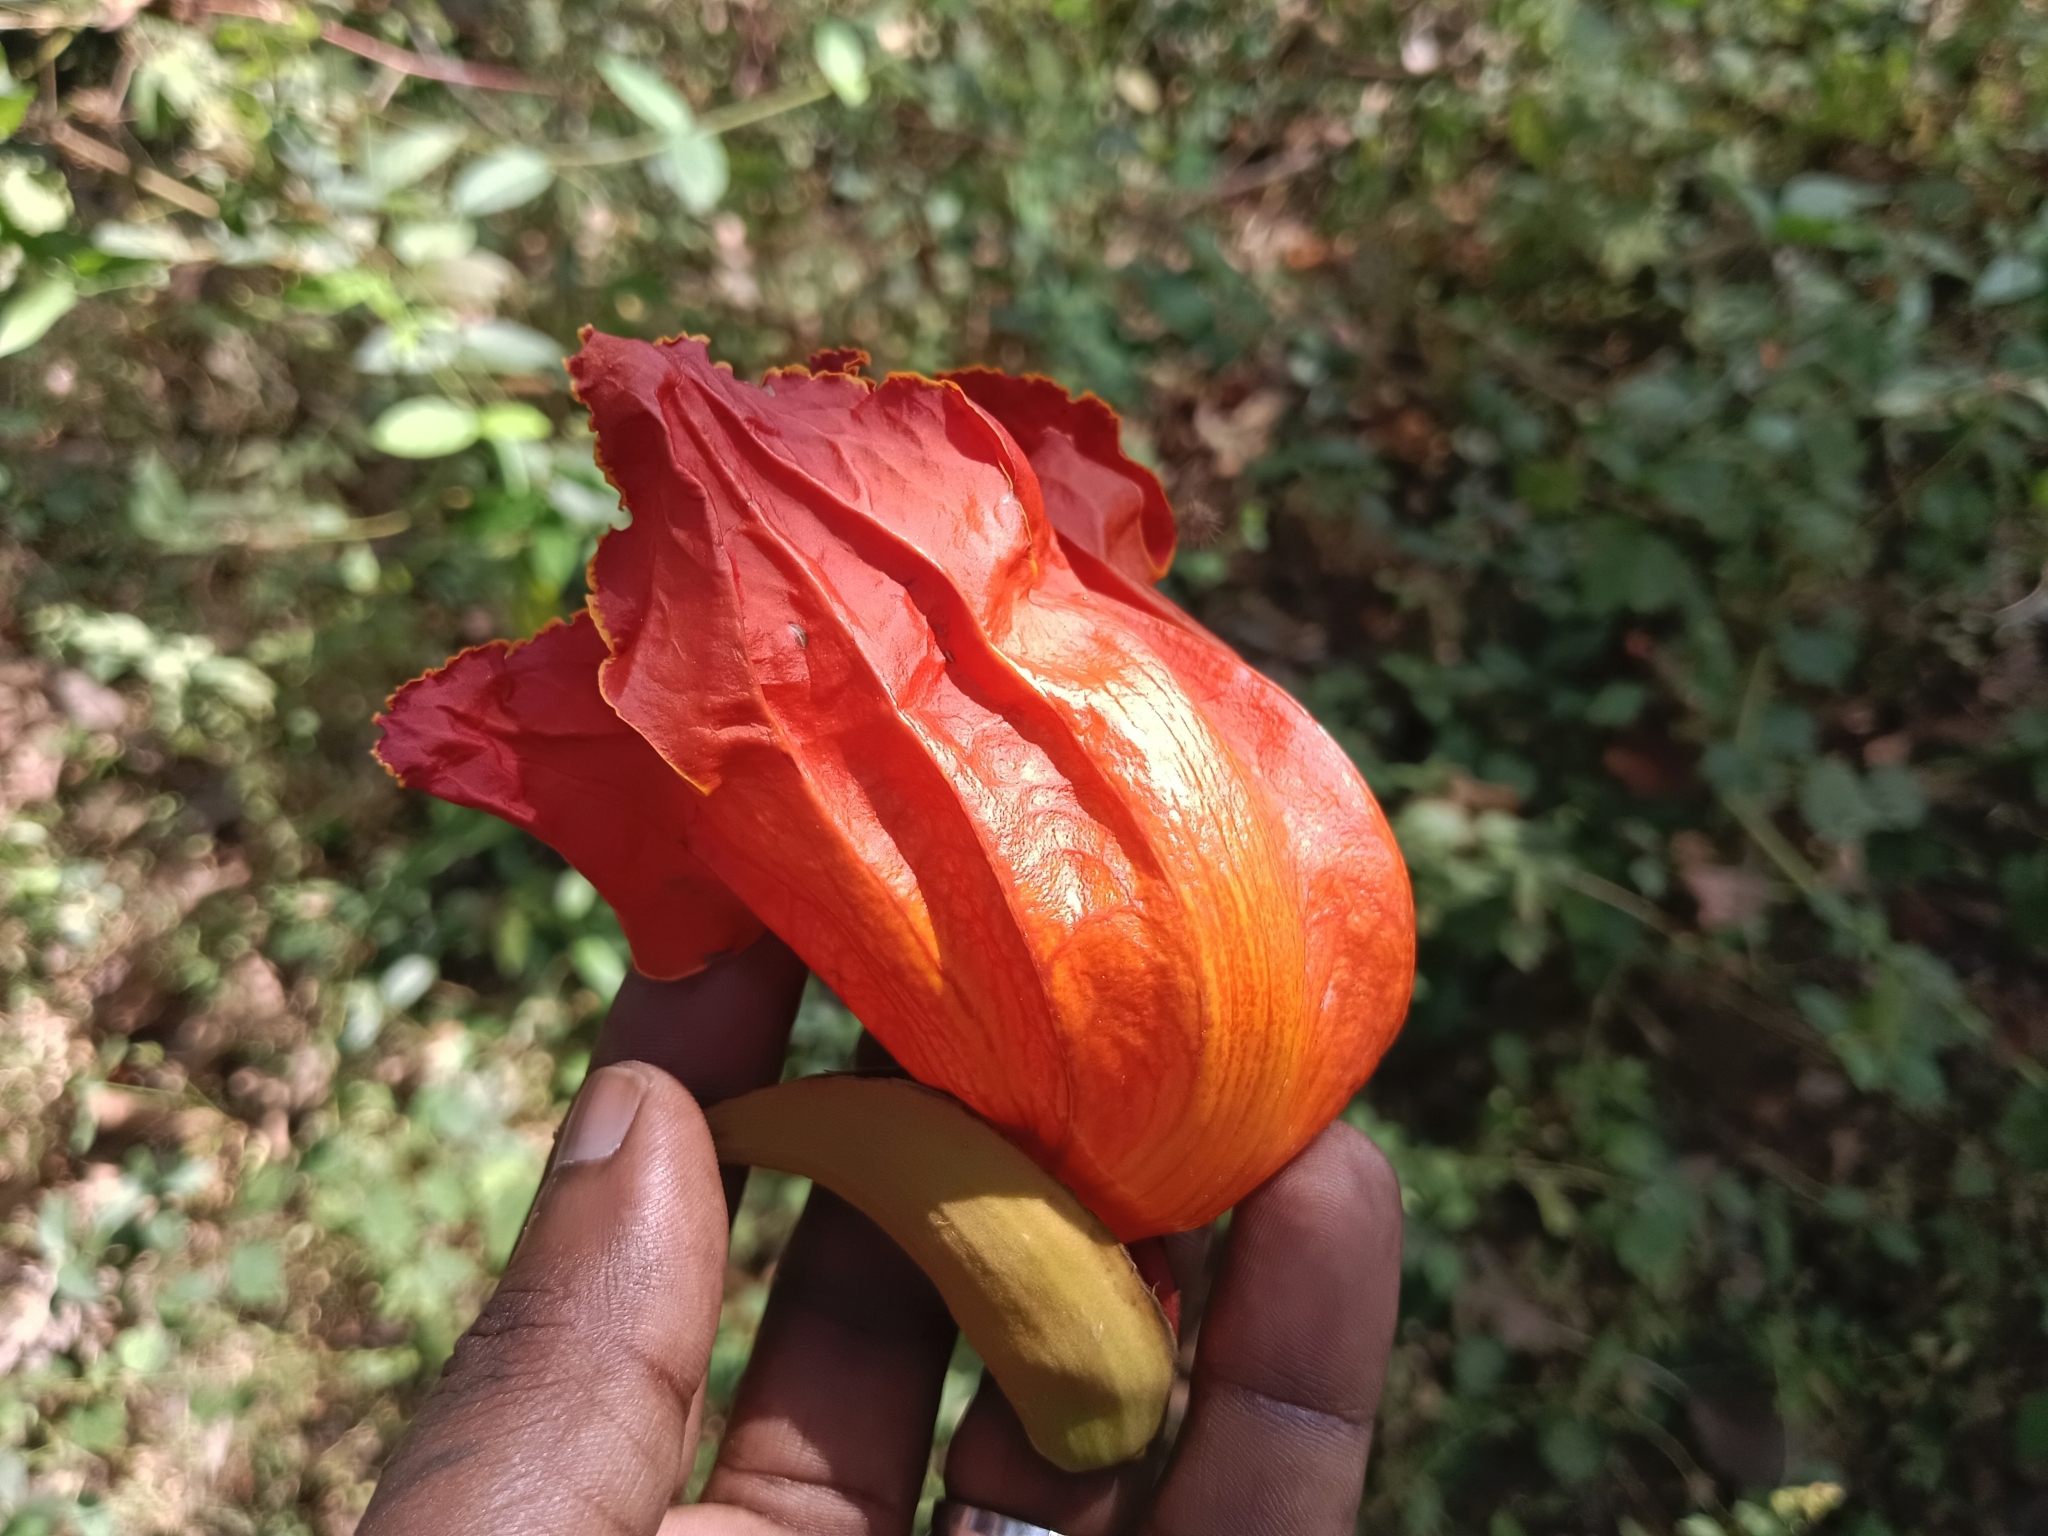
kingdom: Plantae
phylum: Tracheophyta
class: Magnoliopsida
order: Lamiales
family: Bignoniaceae
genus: Spathodea
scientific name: Spathodea campanulata
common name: African tuliptree
